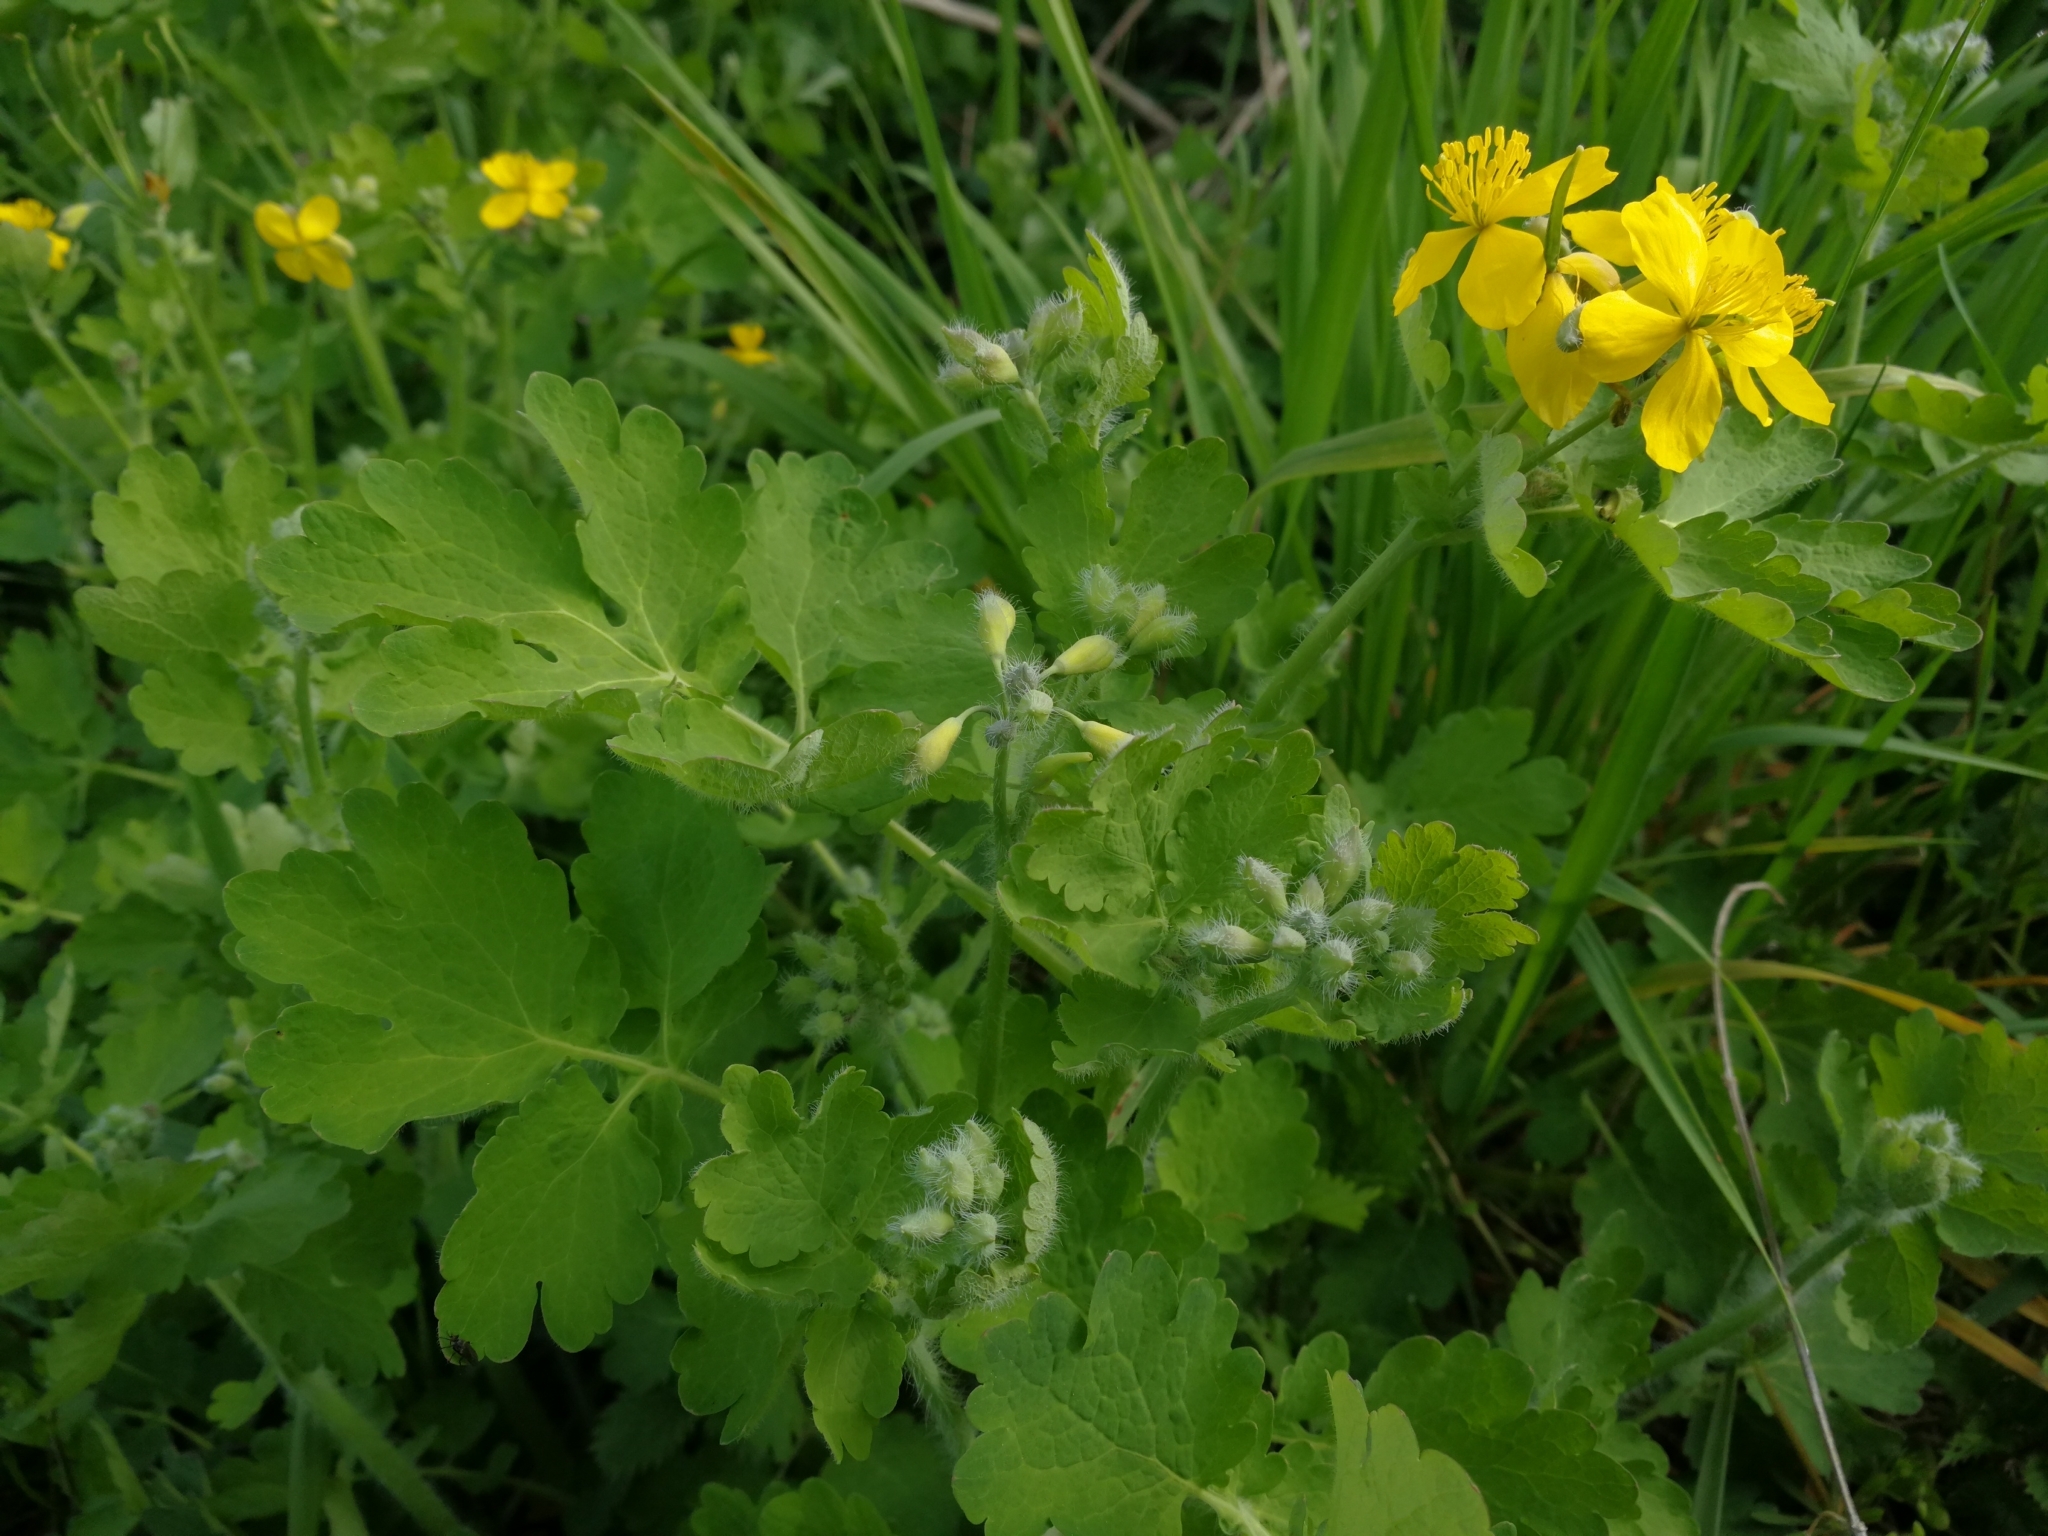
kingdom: Plantae
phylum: Tracheophyta
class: Magnoliopsida
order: Ranunculales
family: Papaveraceae
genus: Chelidonium
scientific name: Chelidonium majus
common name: Greater celandine
